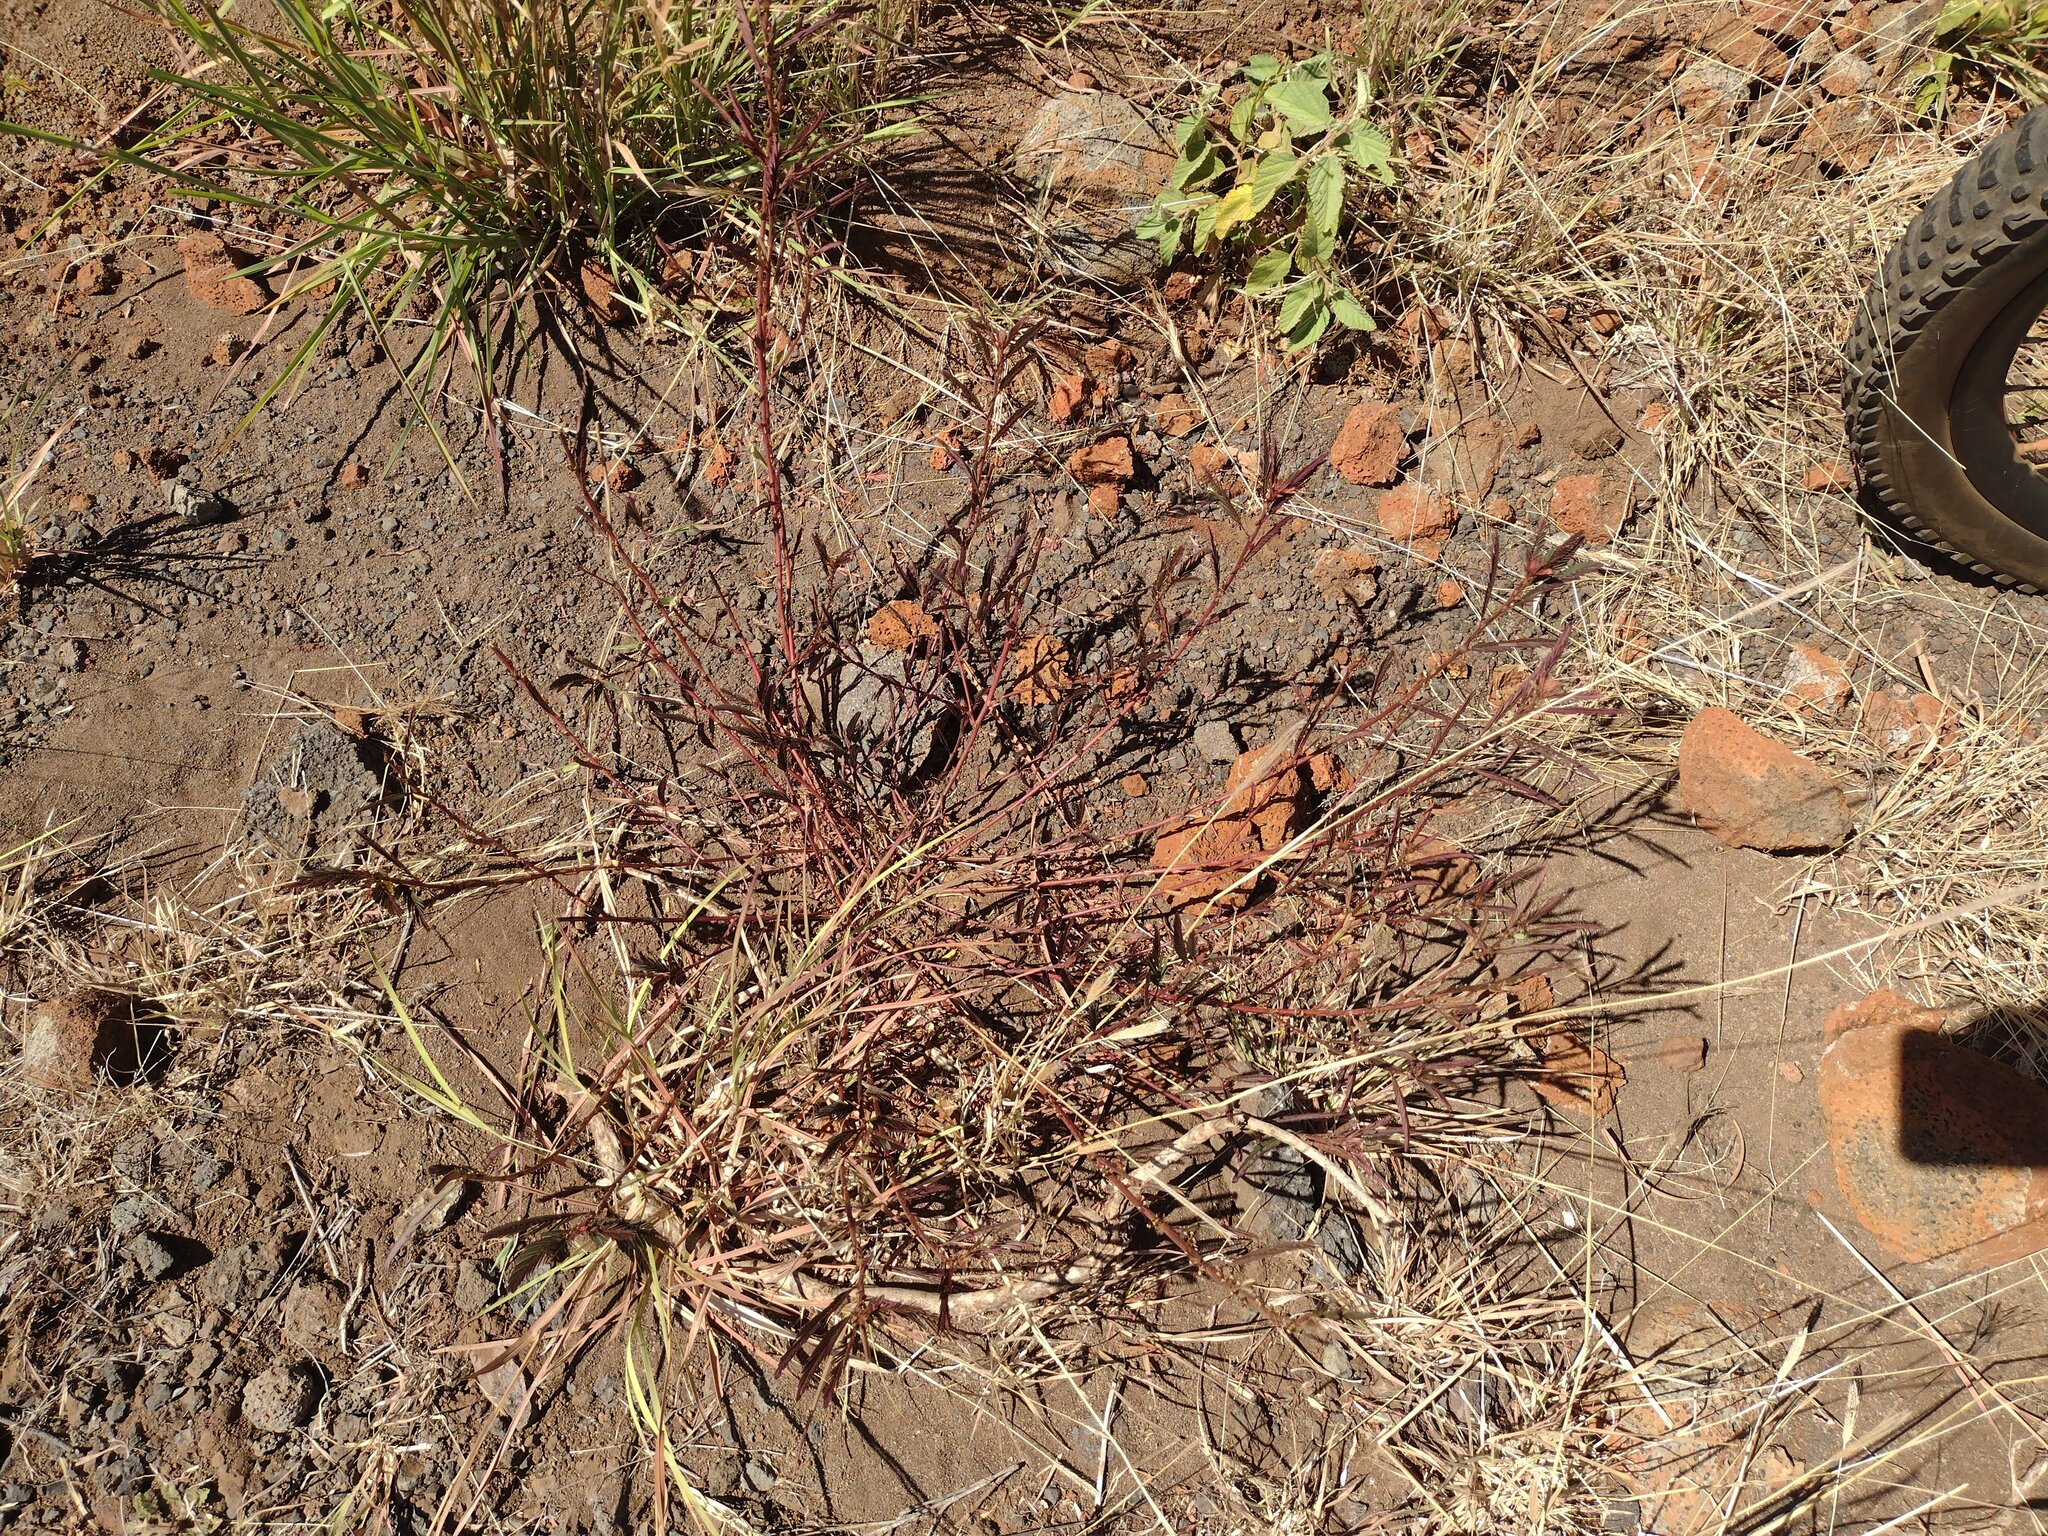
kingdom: Plantae
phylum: Tracheophyta
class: Magnoliopsida
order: Fabales
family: Fabaceae
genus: Chamaecrista
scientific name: Chamaecrista nictitans
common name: Sensitive cassia
